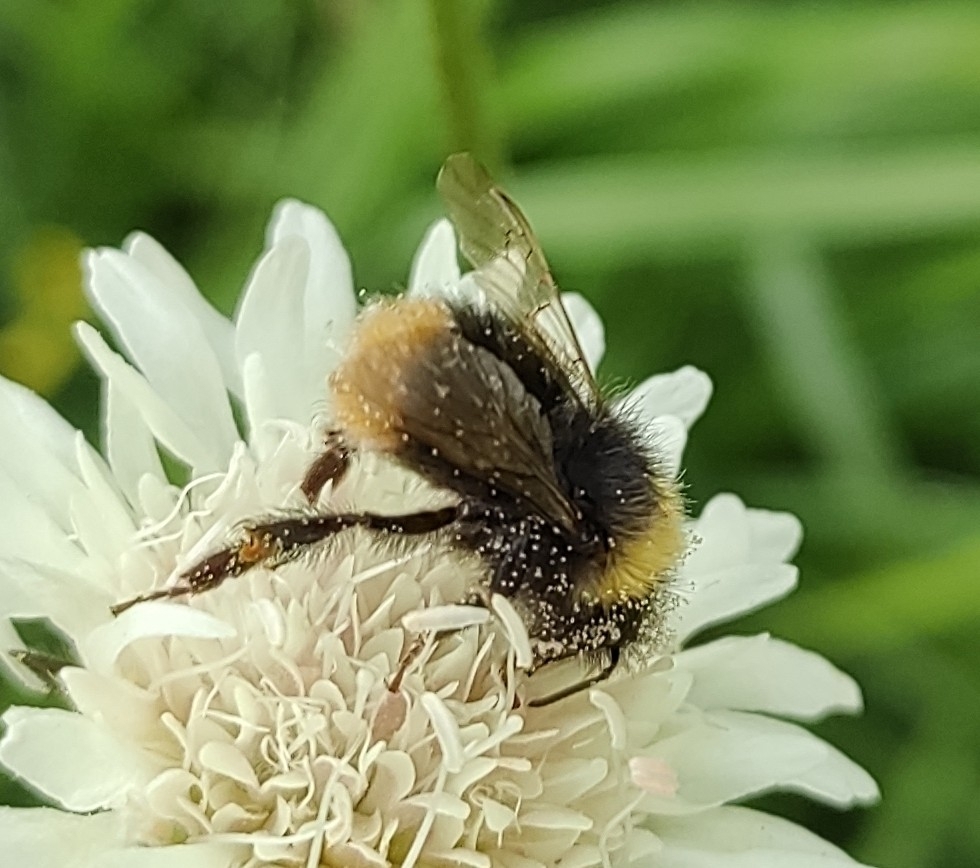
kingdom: Animalia
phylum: Arthropoda
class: Insecta
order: Hymenoptera
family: Apidae
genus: Bombus
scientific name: Bombus pratorum
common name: Early humble-bee
